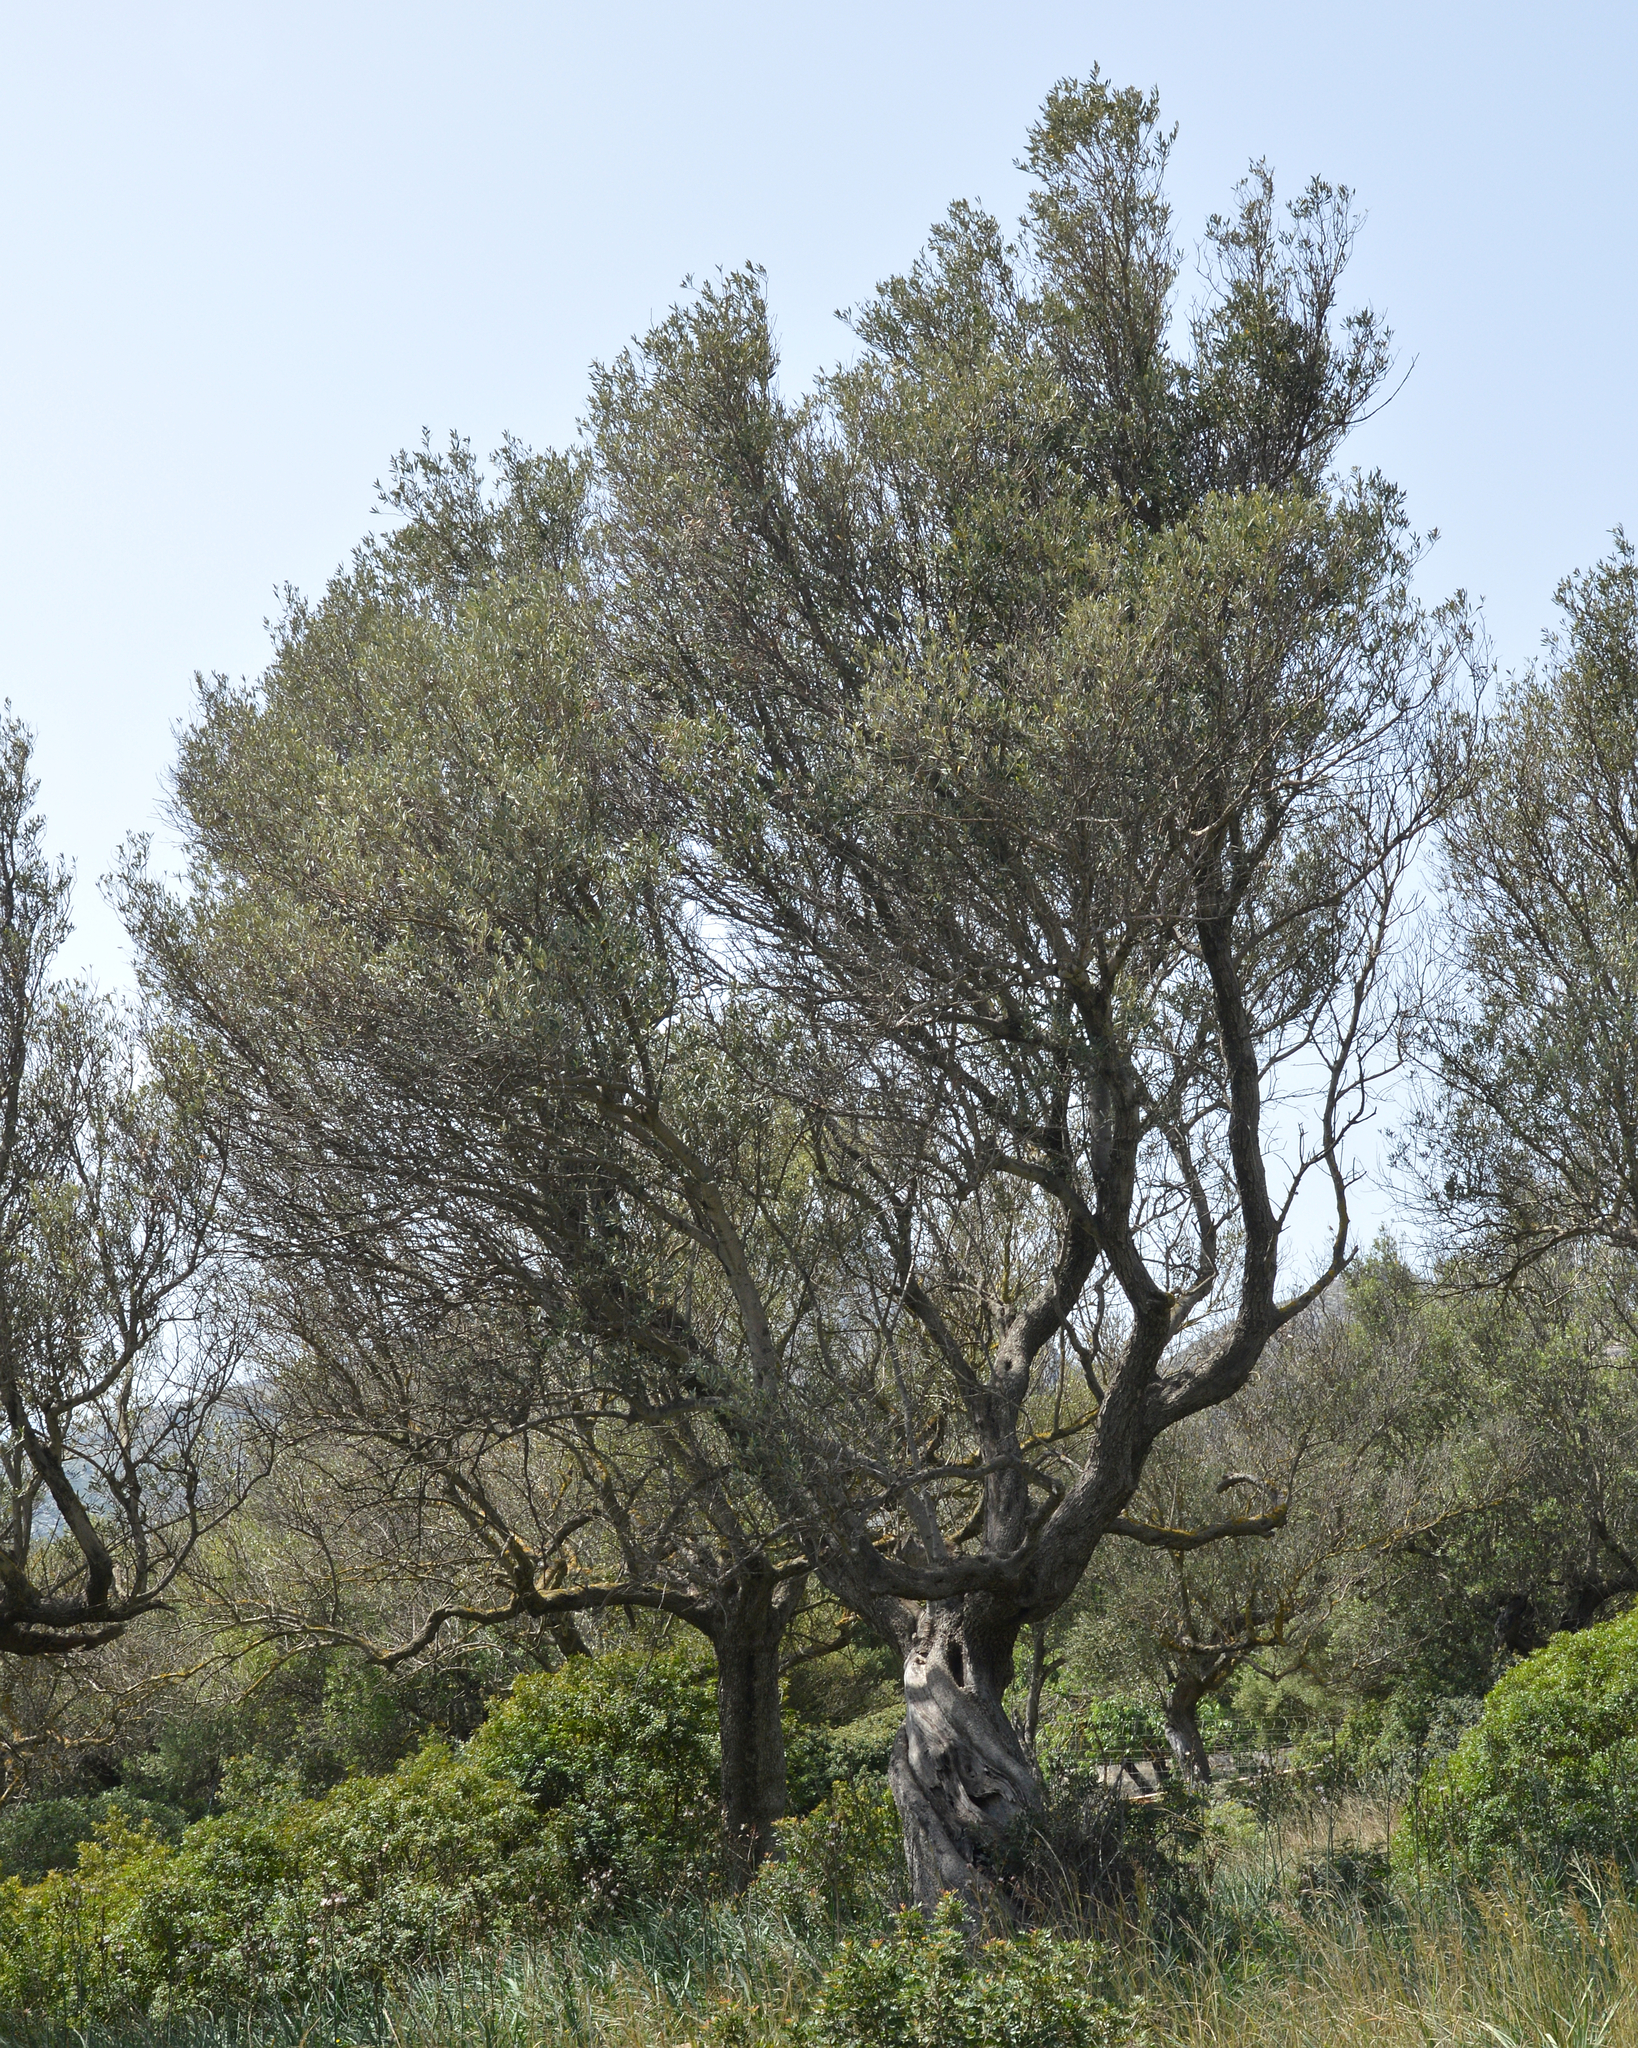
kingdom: Plantae
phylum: Tracheophyta
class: Magnoliopsida
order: Lamiales
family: Oleaceae
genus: Olea
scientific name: Olea europaea
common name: Olive
